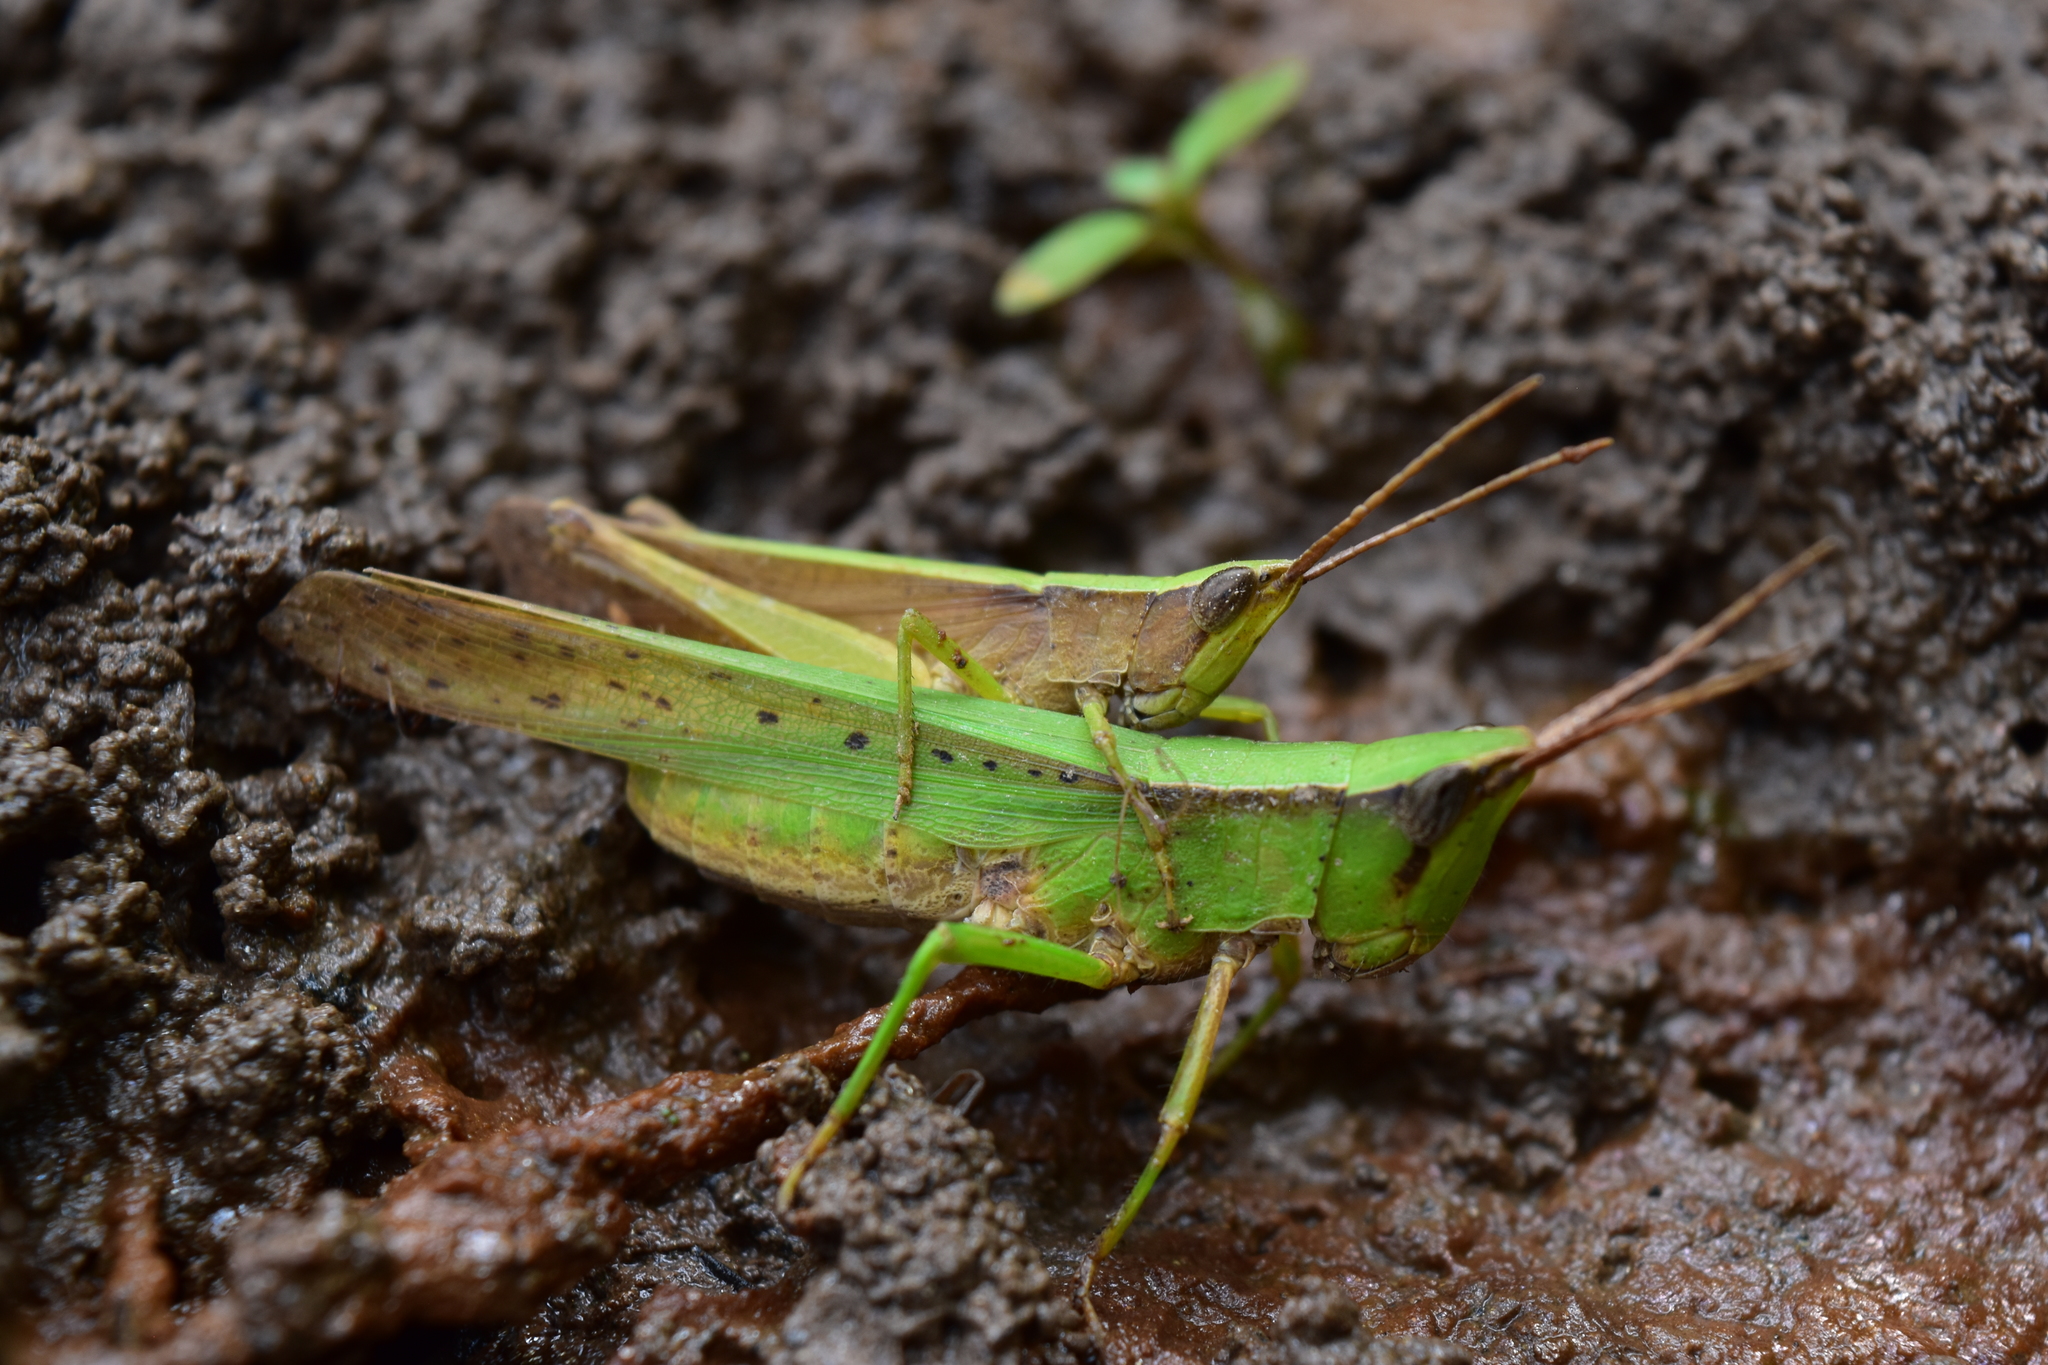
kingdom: Animalia
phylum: Arthropoda
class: Insecta
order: Orthoptera
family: Acrididae
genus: Metaleptea
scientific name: Metaleptea brevicornis
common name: Clipped-wing grasshopper
